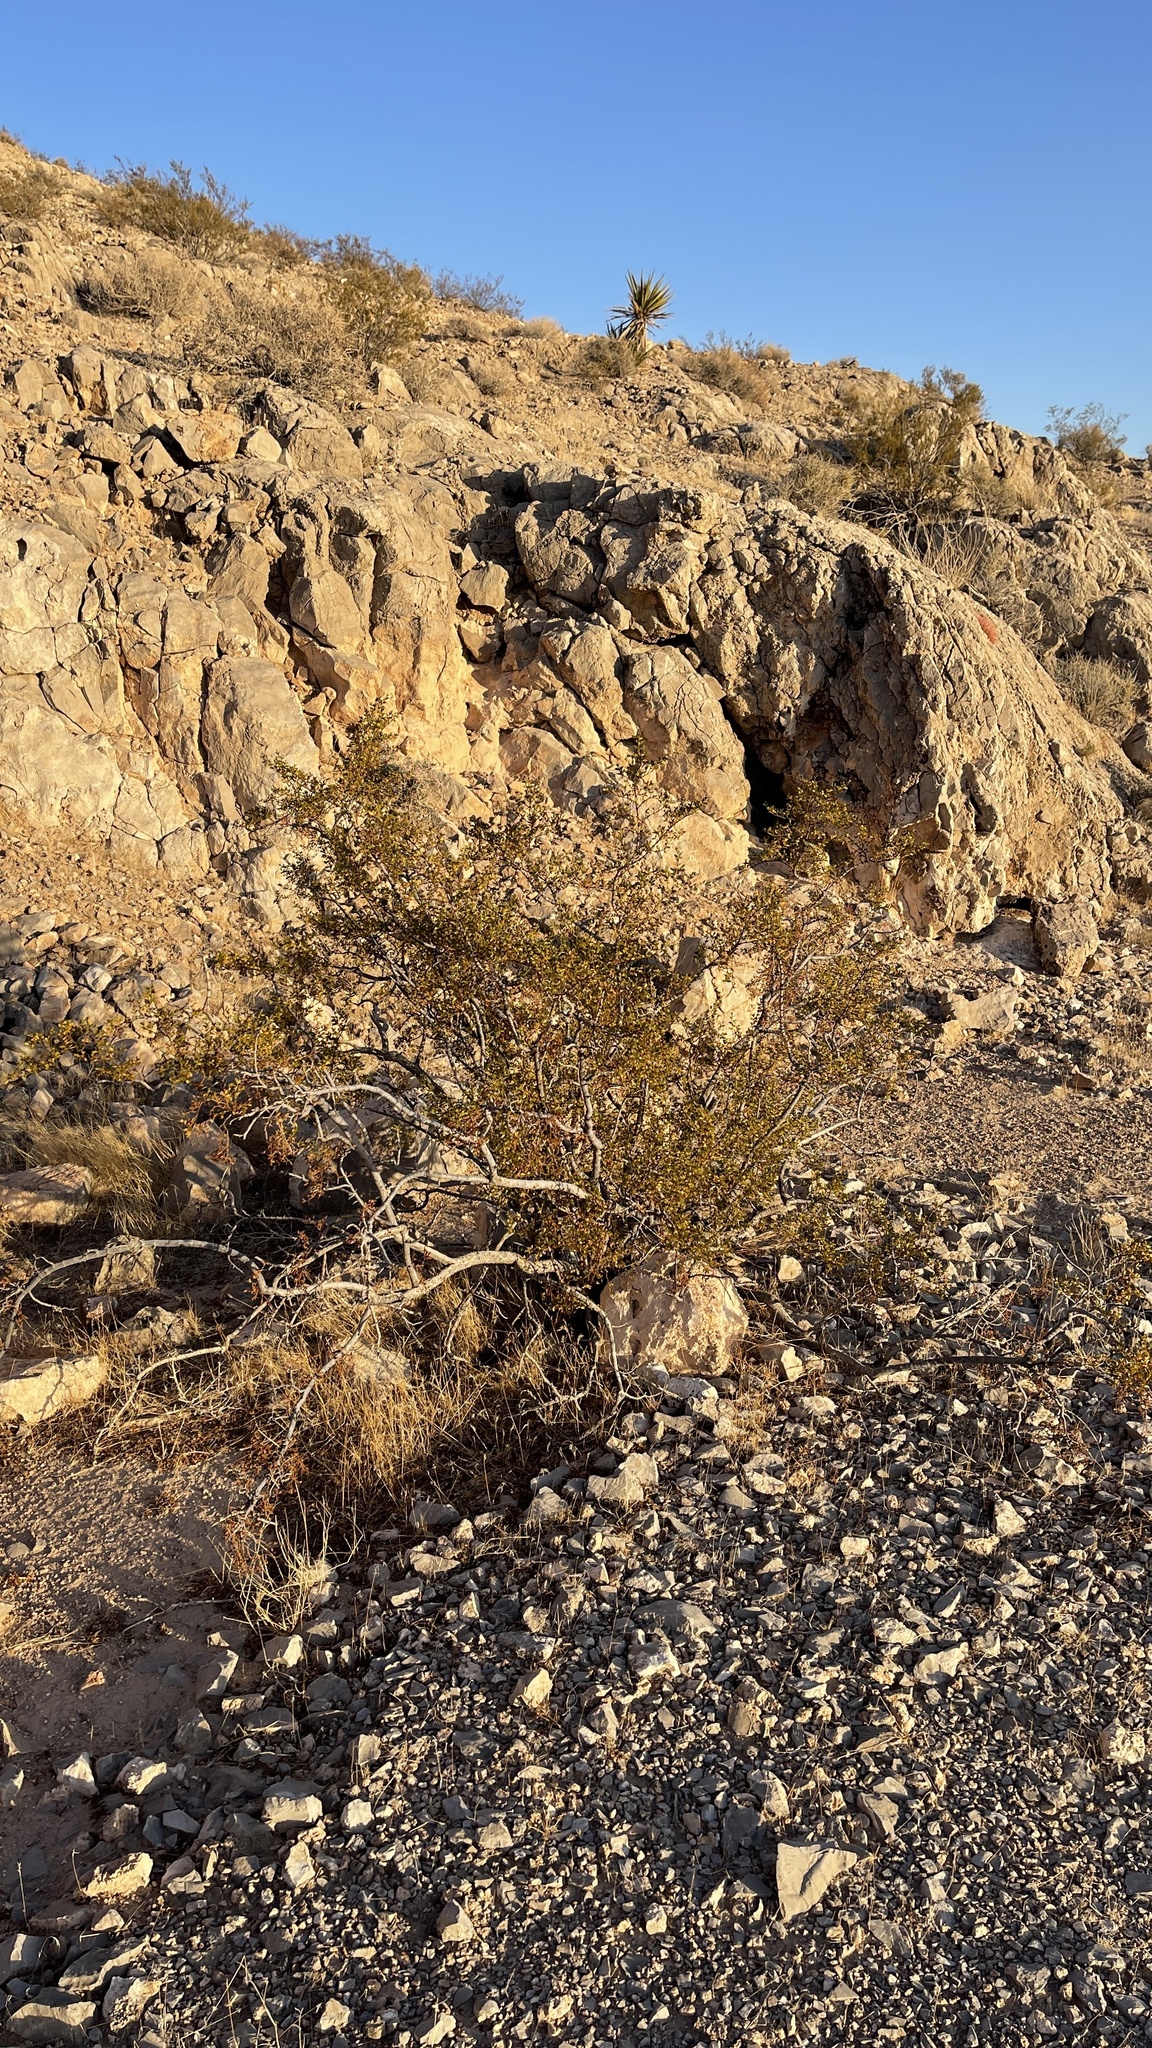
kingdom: Plantae
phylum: Tracheophyta
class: Magnoliopsida
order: Zygophyllales
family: Zygophyllaceae
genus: Larrea
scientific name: Larrea tridentata
